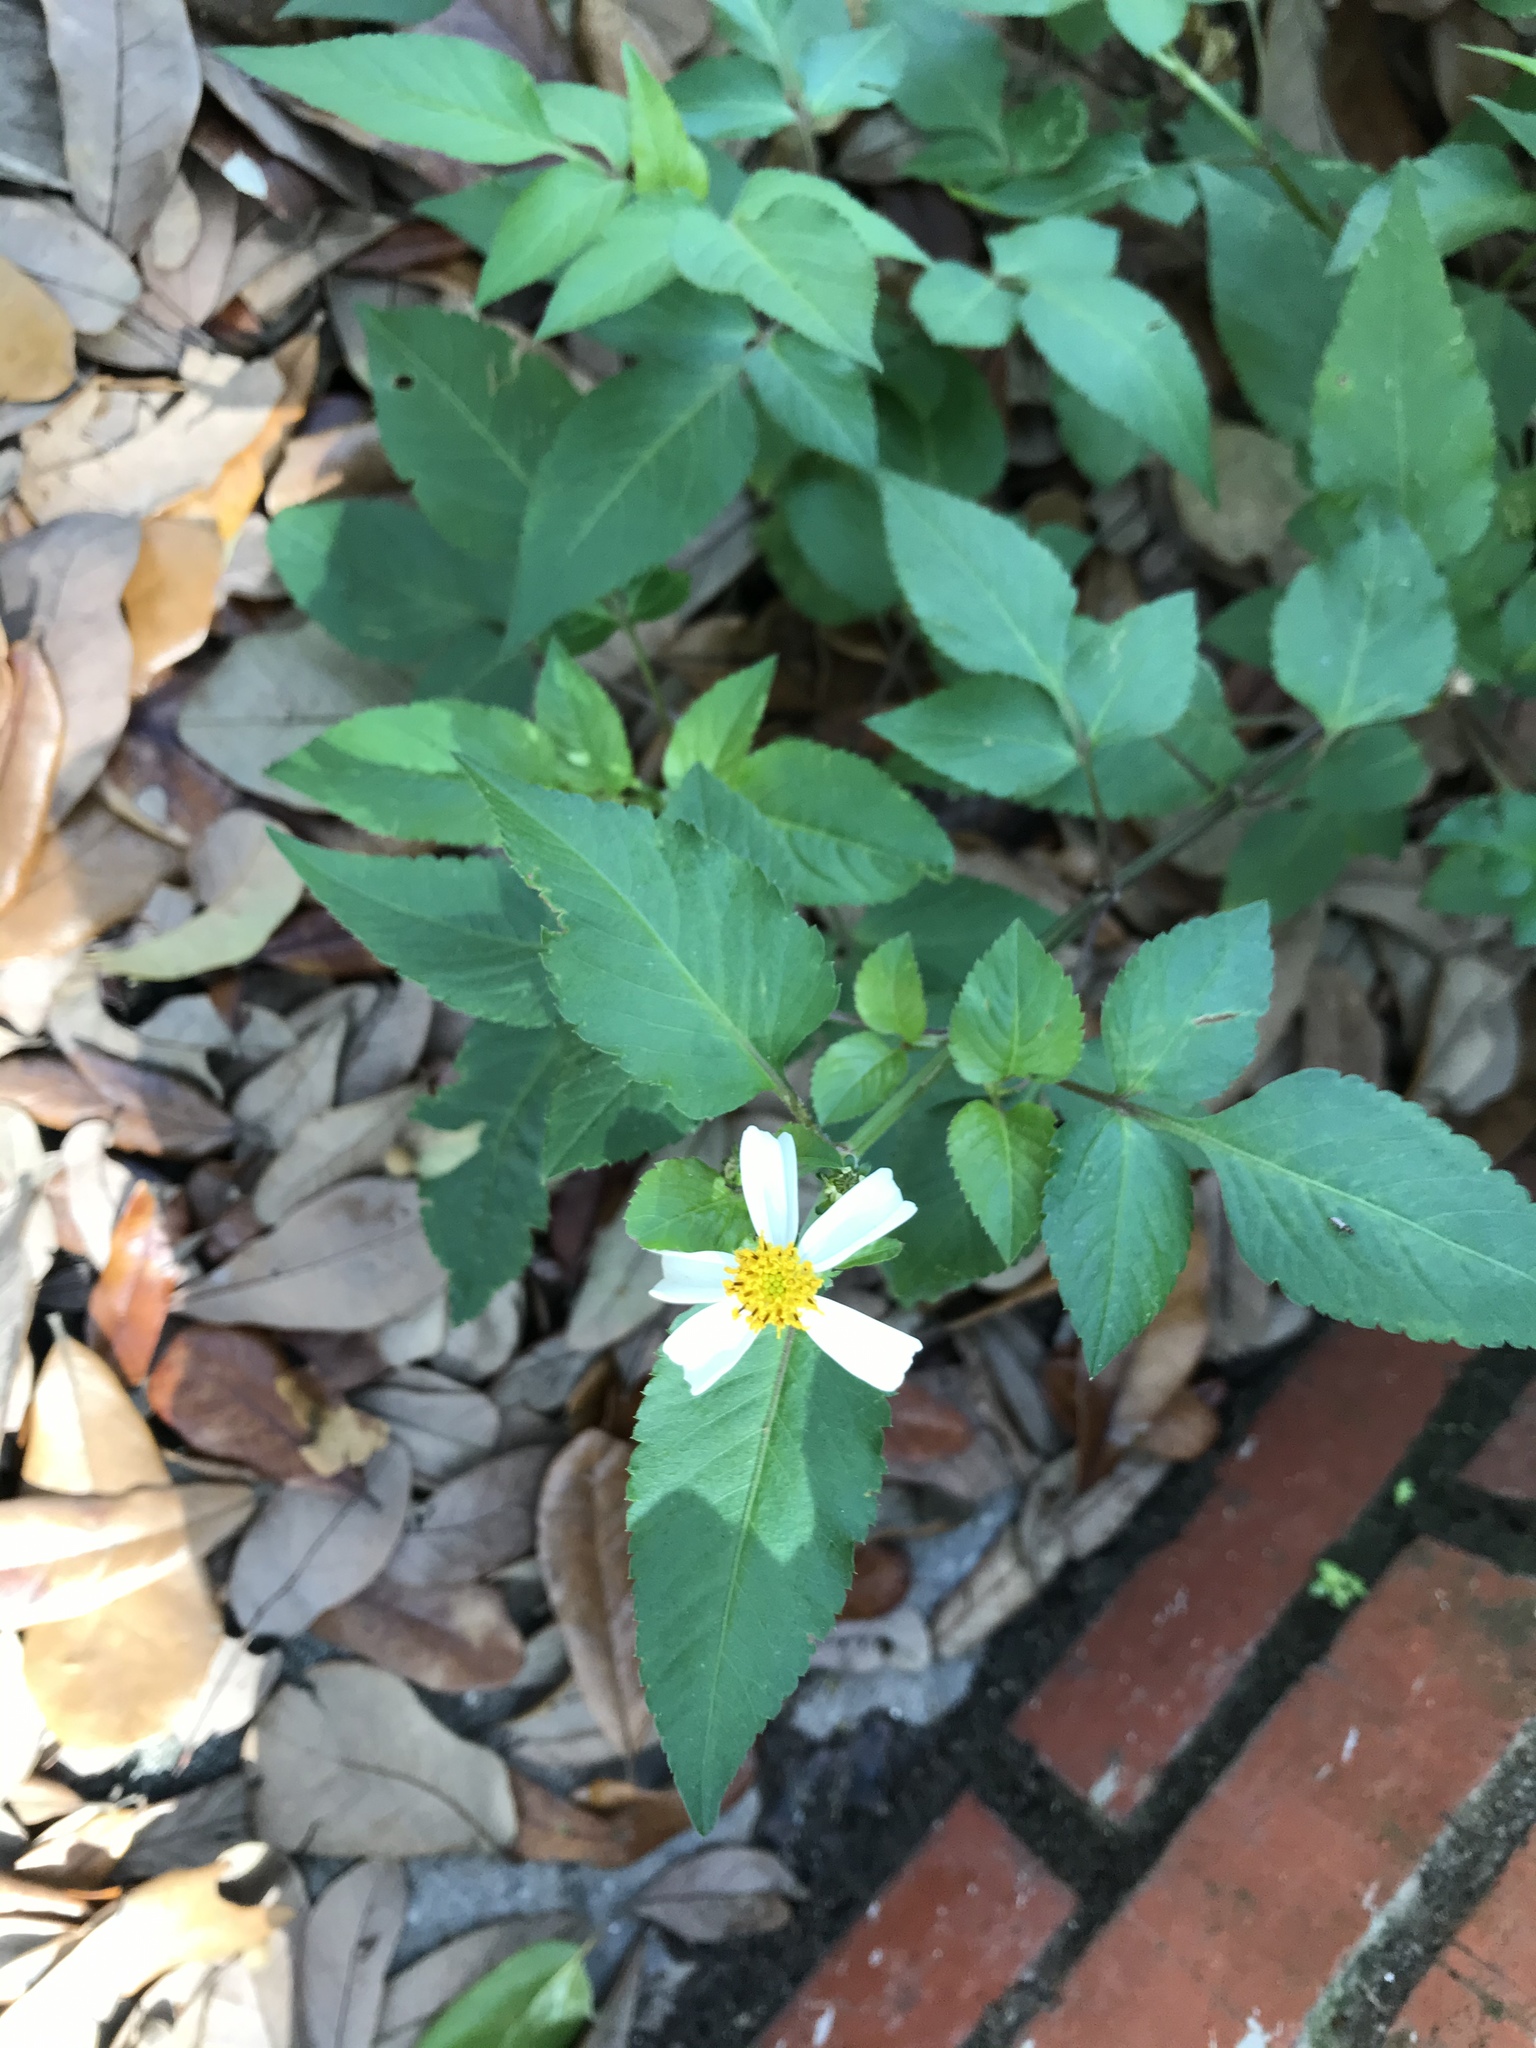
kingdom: Plantae
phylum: Tracheophyta
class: Magnoliopsida
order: Asterales
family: Asteraceae
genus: Bidens
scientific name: Bidens alba
